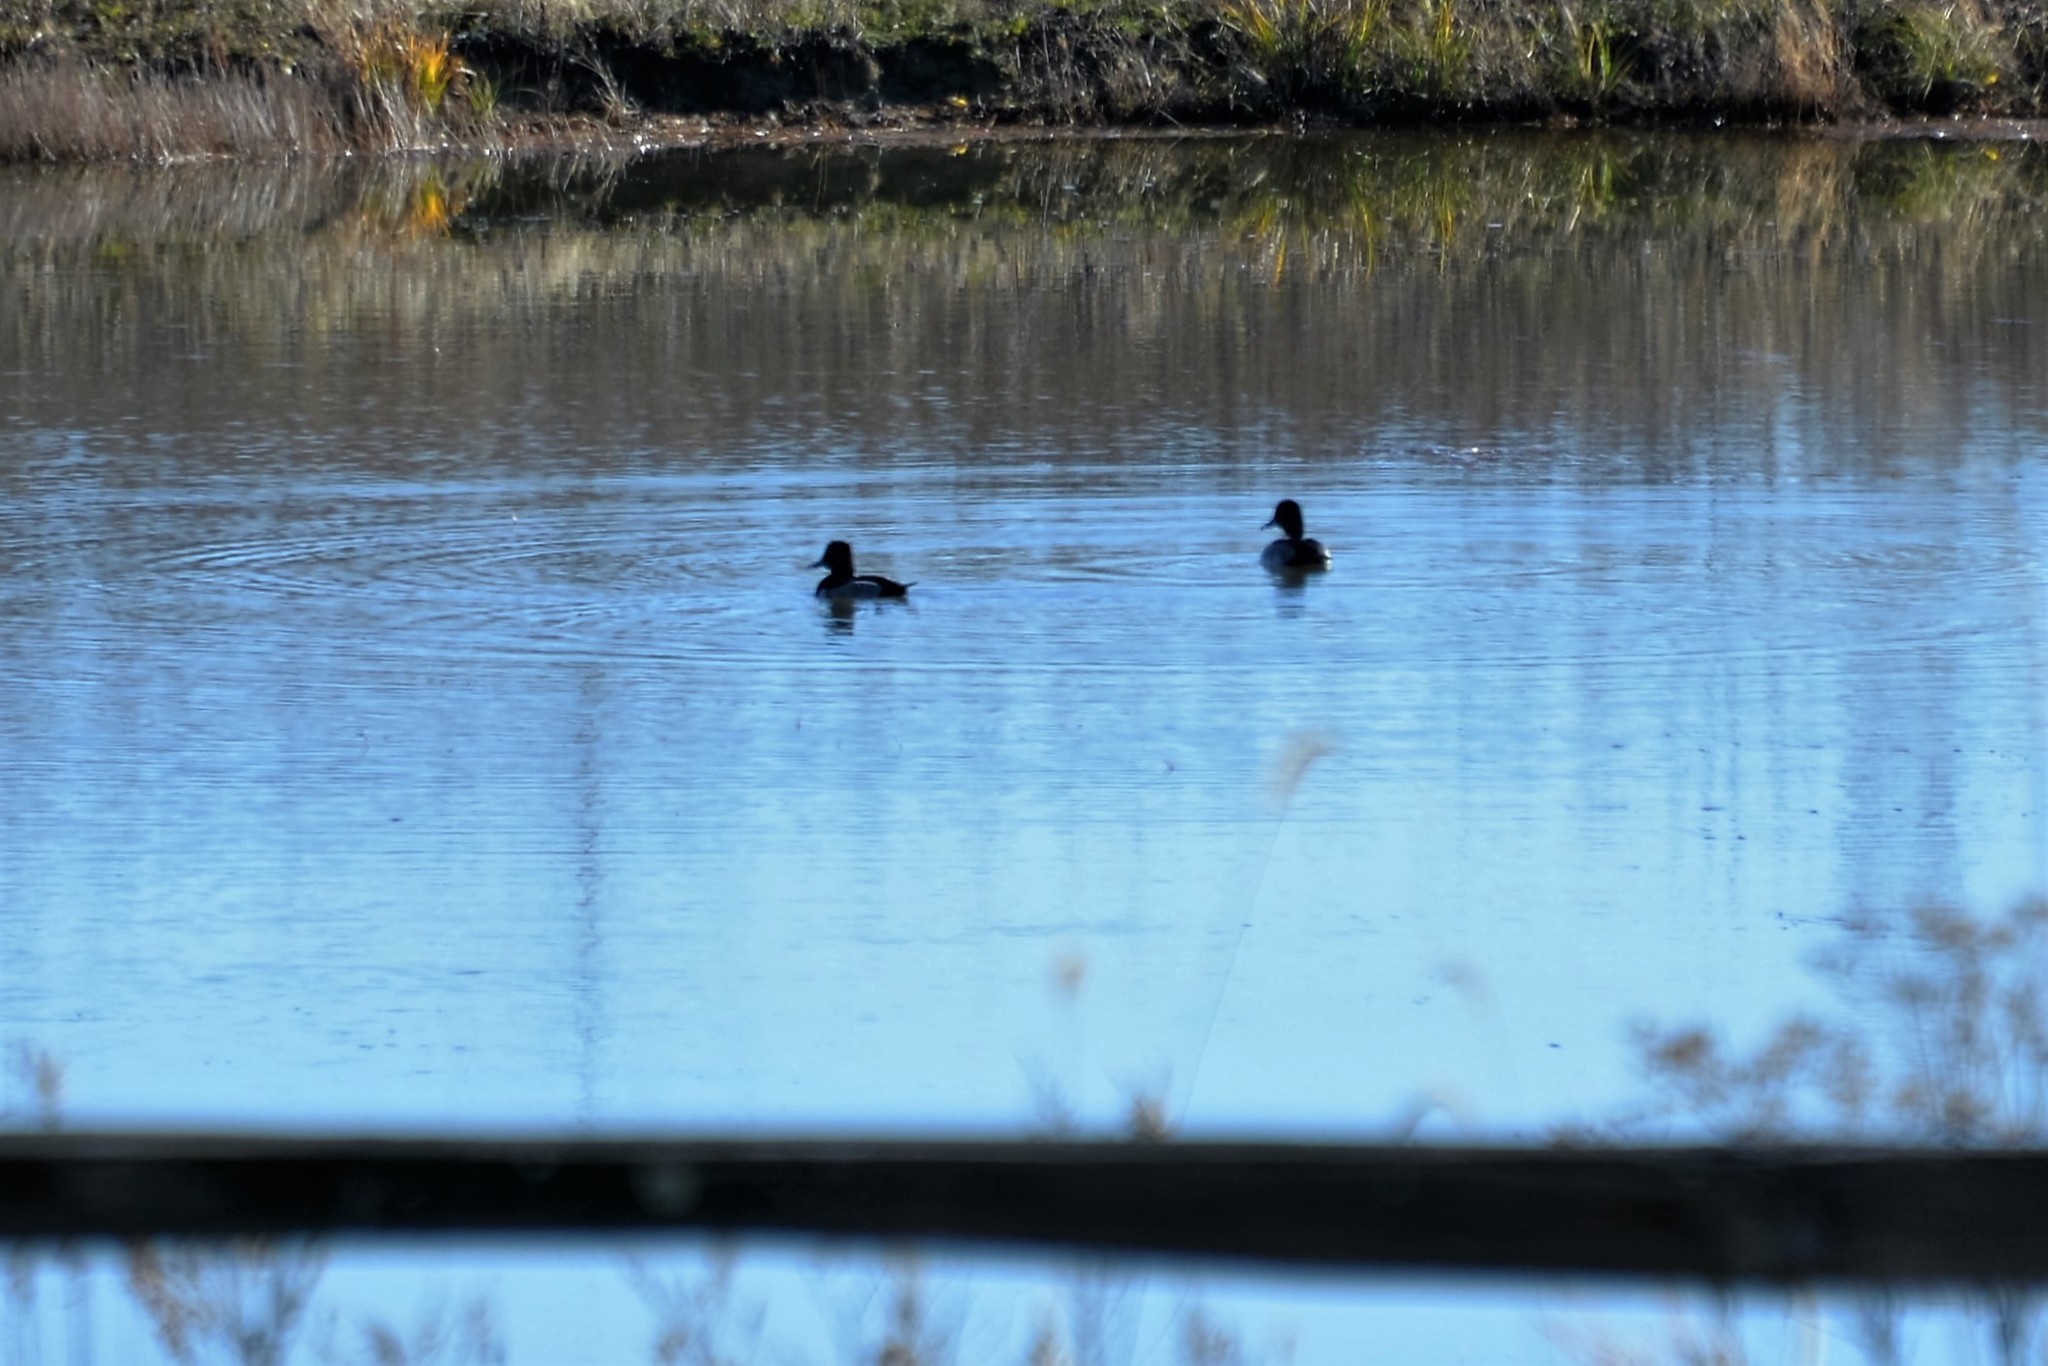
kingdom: Animalia
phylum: Chordata
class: Aves
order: Anseriformes
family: Anatidae
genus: Aythya
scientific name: Aythya collaris
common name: Ring-necked duck
